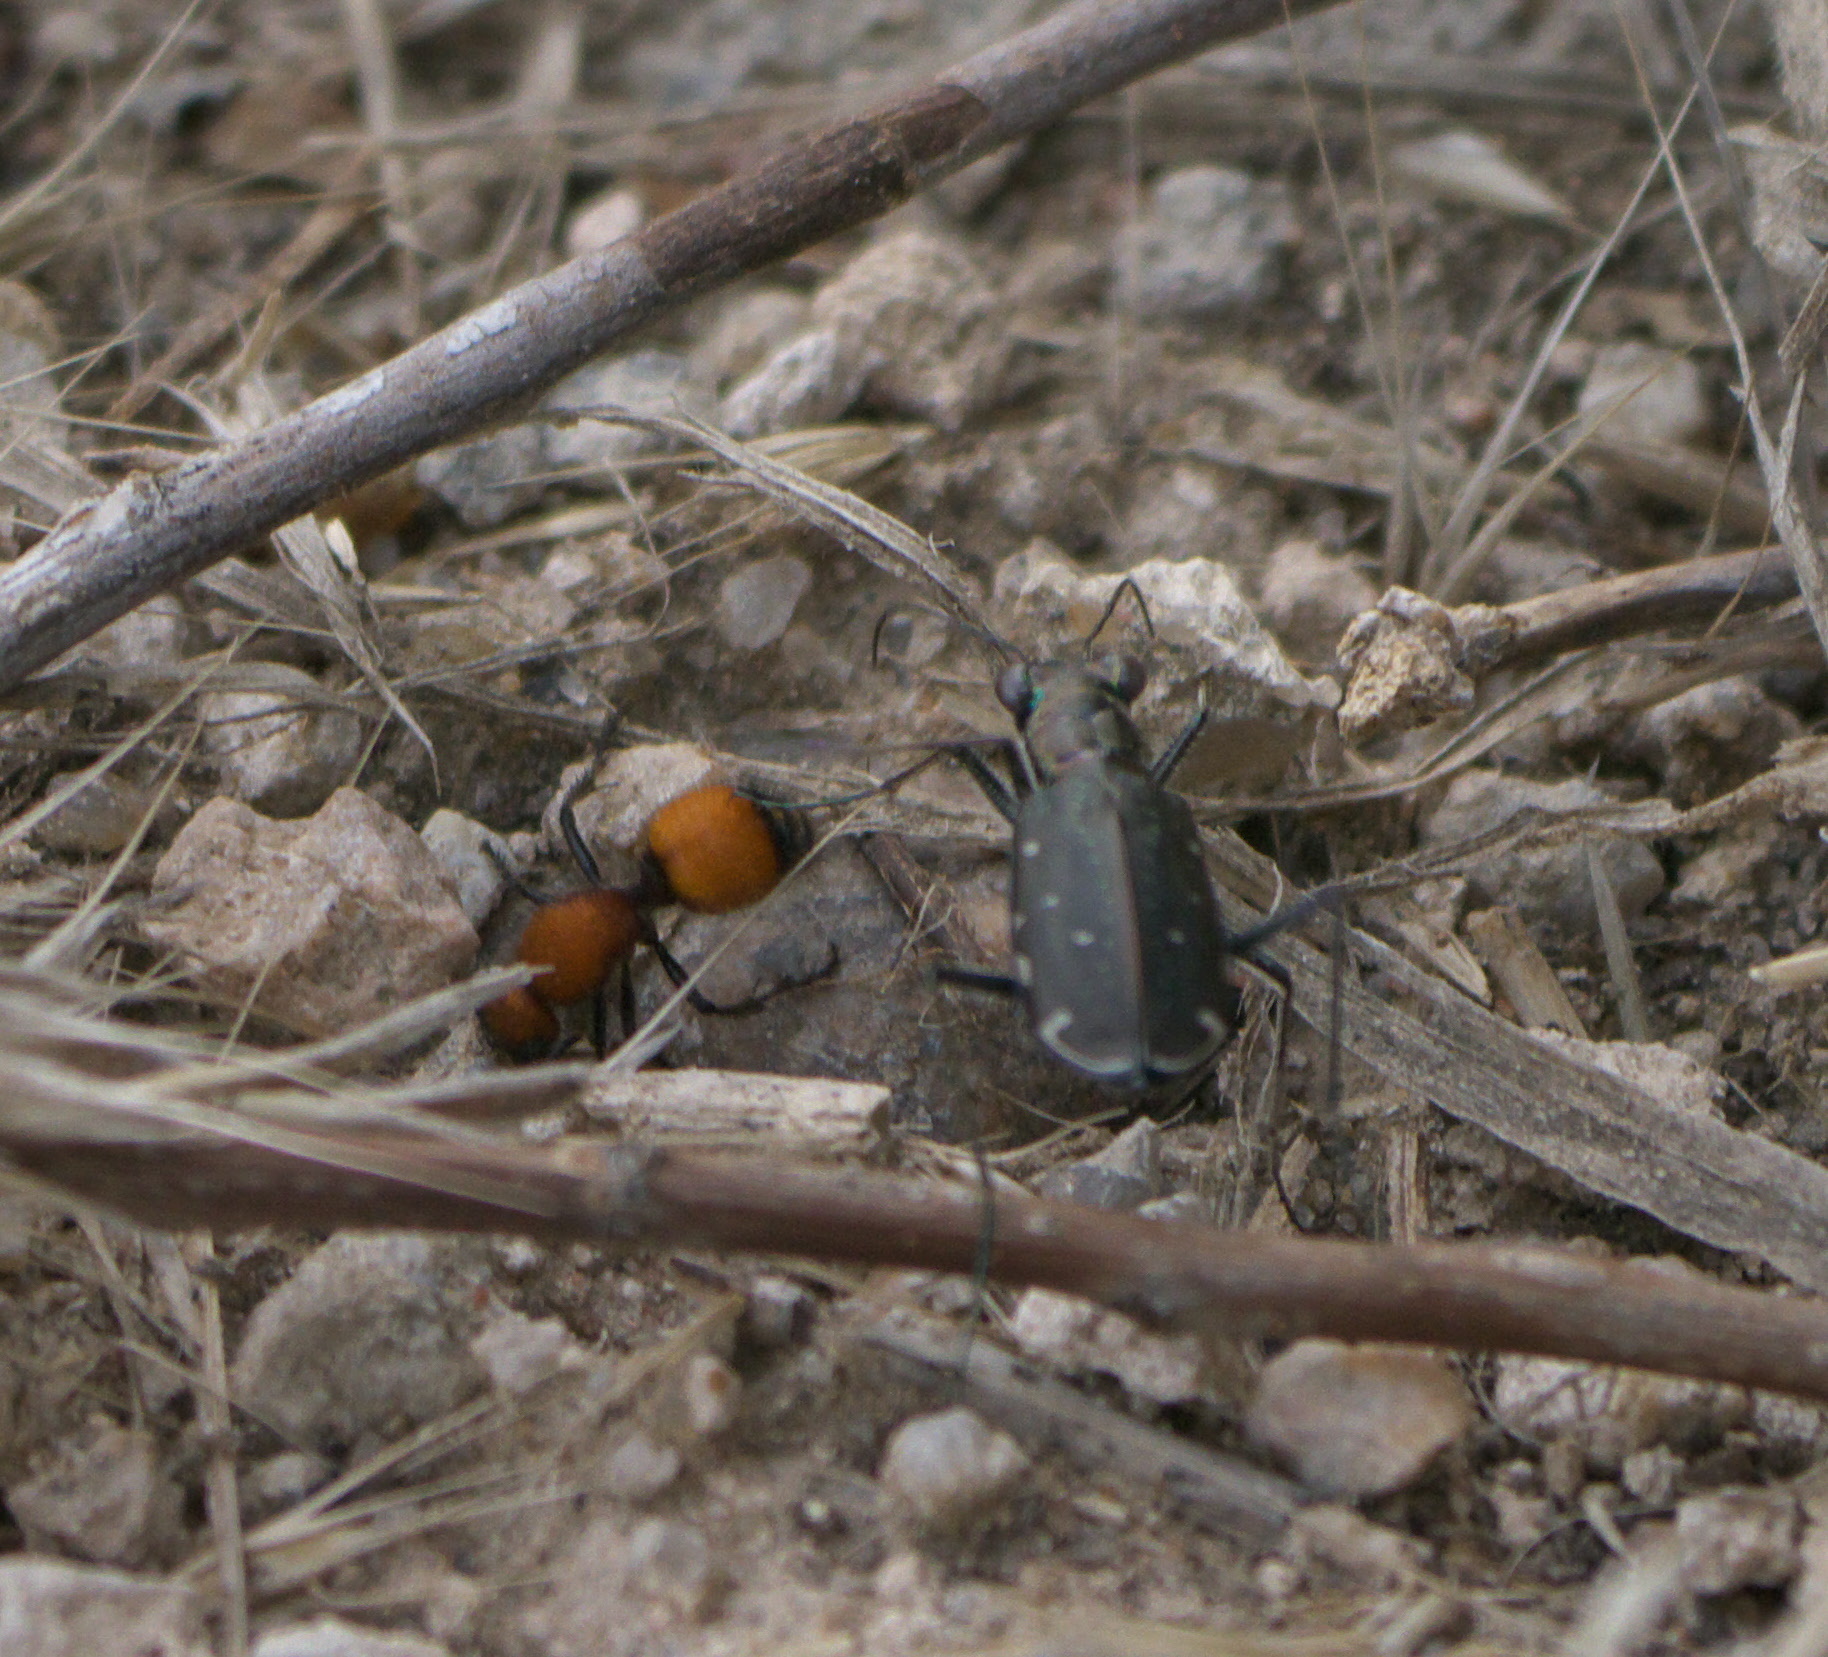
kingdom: Animalia
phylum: Arthropoda
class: Insecta
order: Coleoptera
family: Carabidae
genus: Cicindela
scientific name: Cicindela punctulata
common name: Punctured tiger beetle
